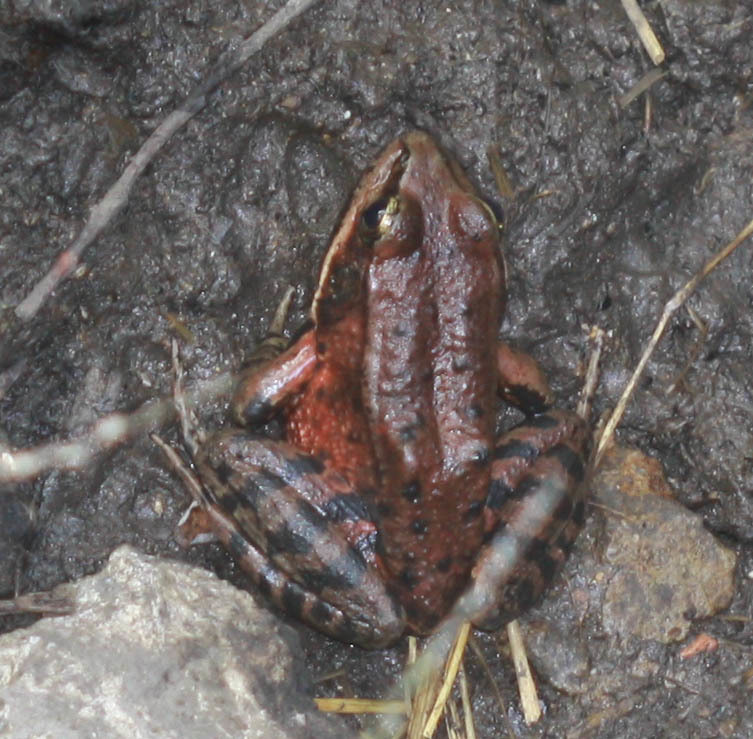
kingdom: Animalia
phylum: Chordata
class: Amphibia
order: Anura
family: Ranidae
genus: Rana
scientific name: Rana draytonii
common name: California red-legged frog
